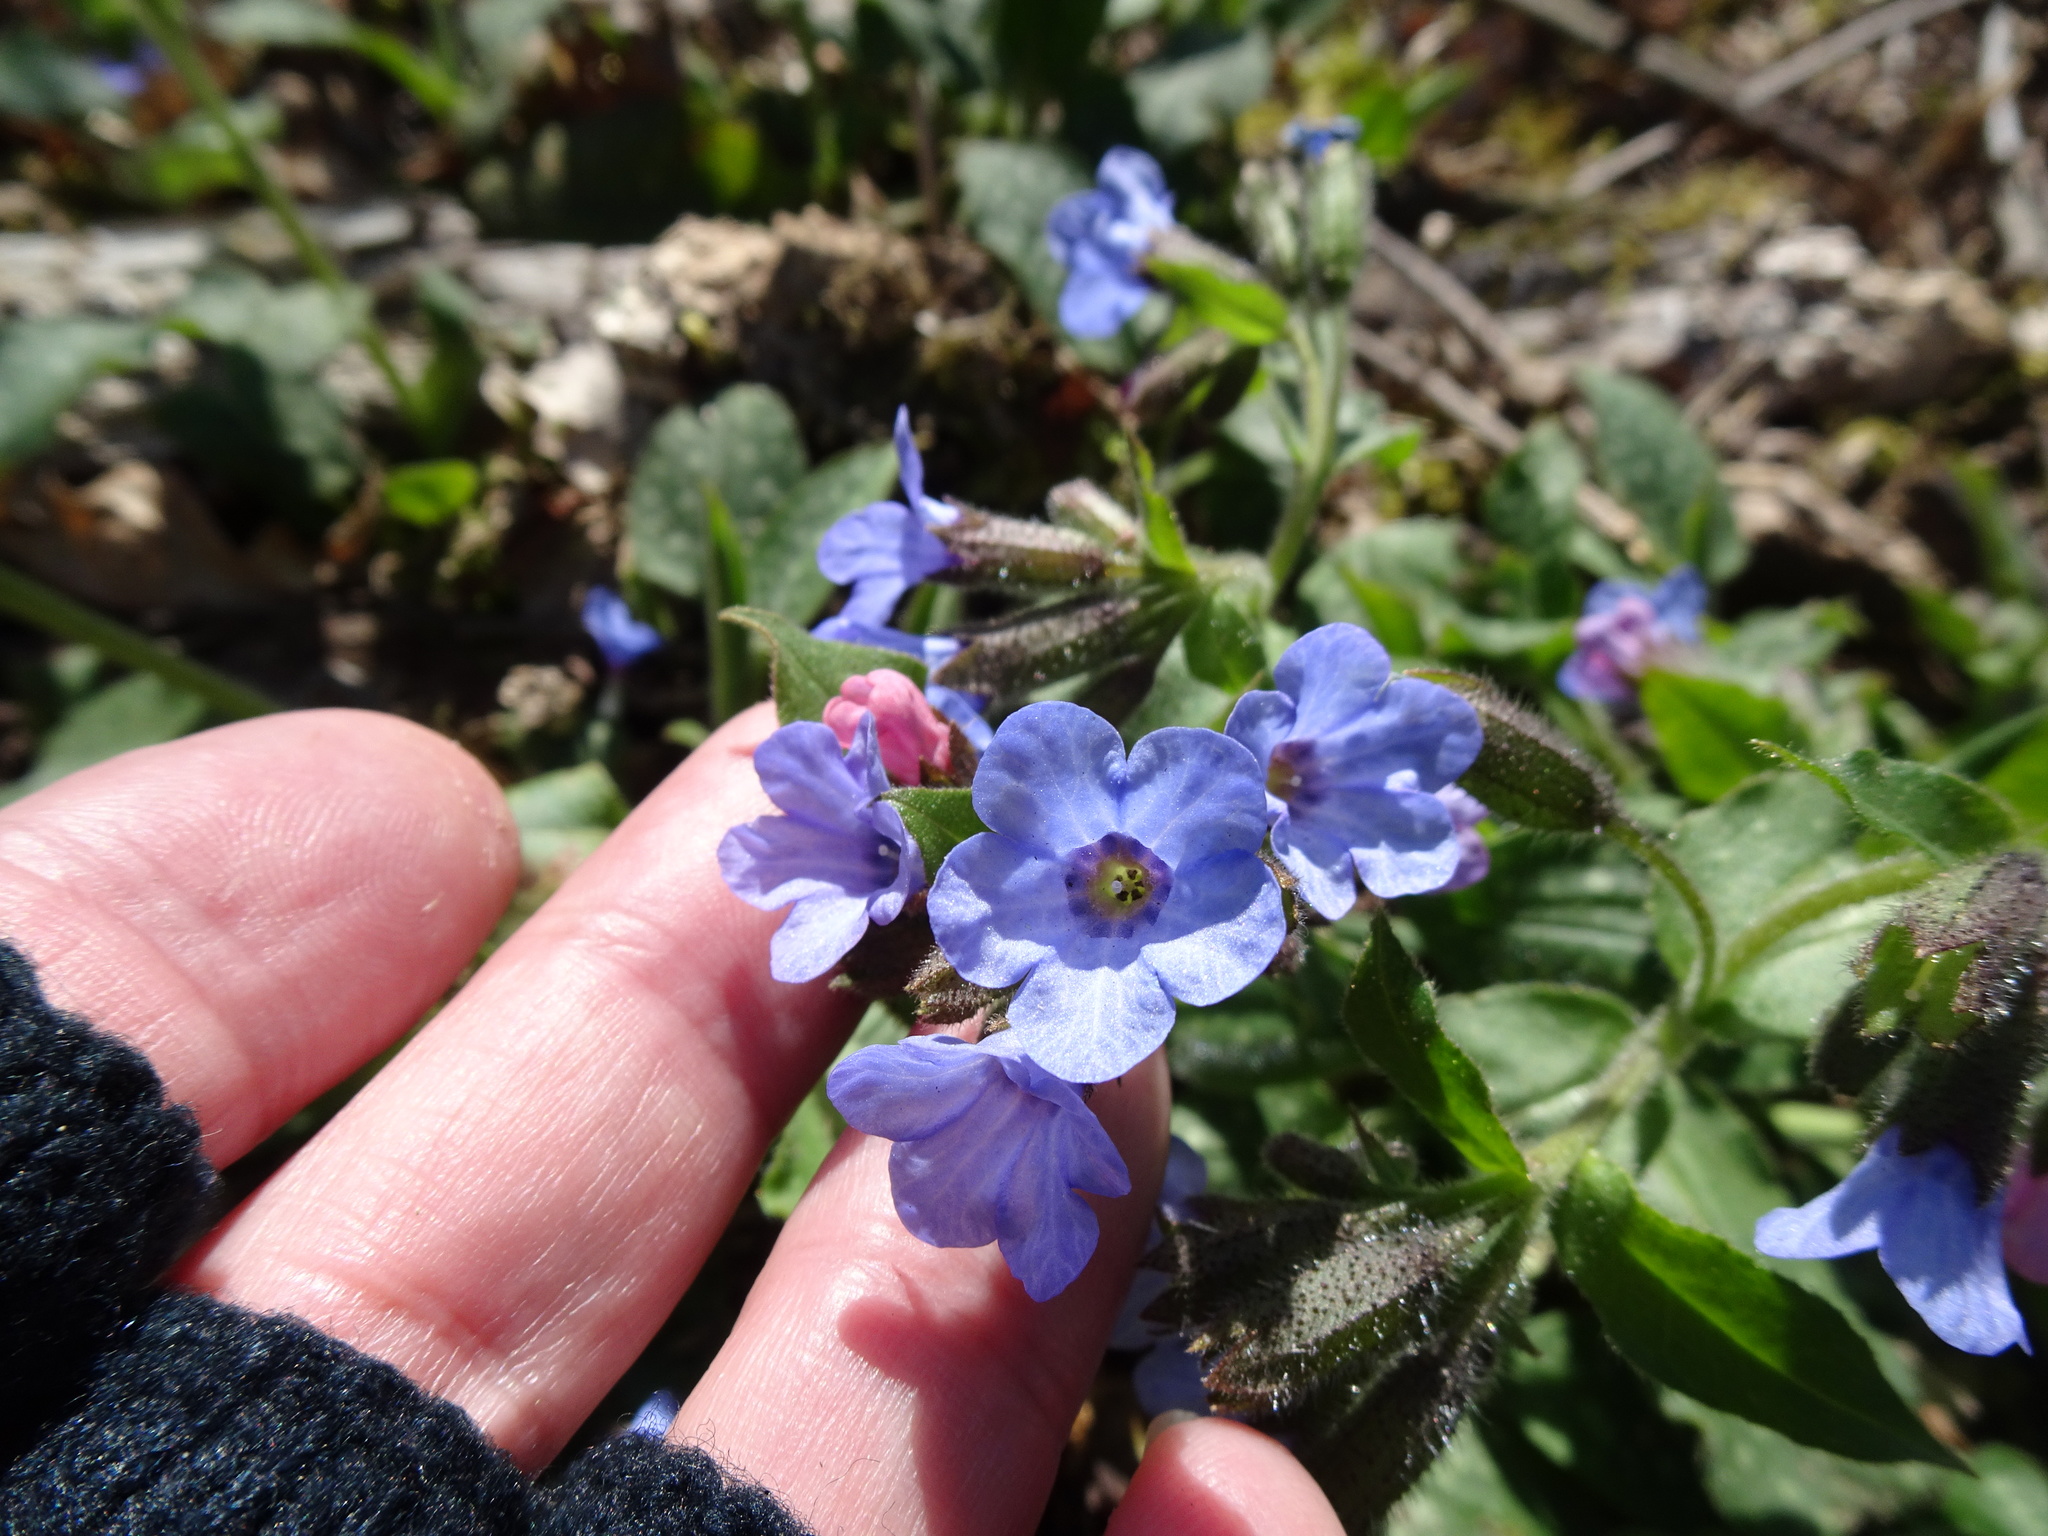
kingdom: Plantae
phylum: Tracheophyta
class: Magnoliopsida
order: Boraginales
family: Boraginaceae
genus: Pulmonaria
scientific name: Pulmonaria officinalis
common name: Lungwort
